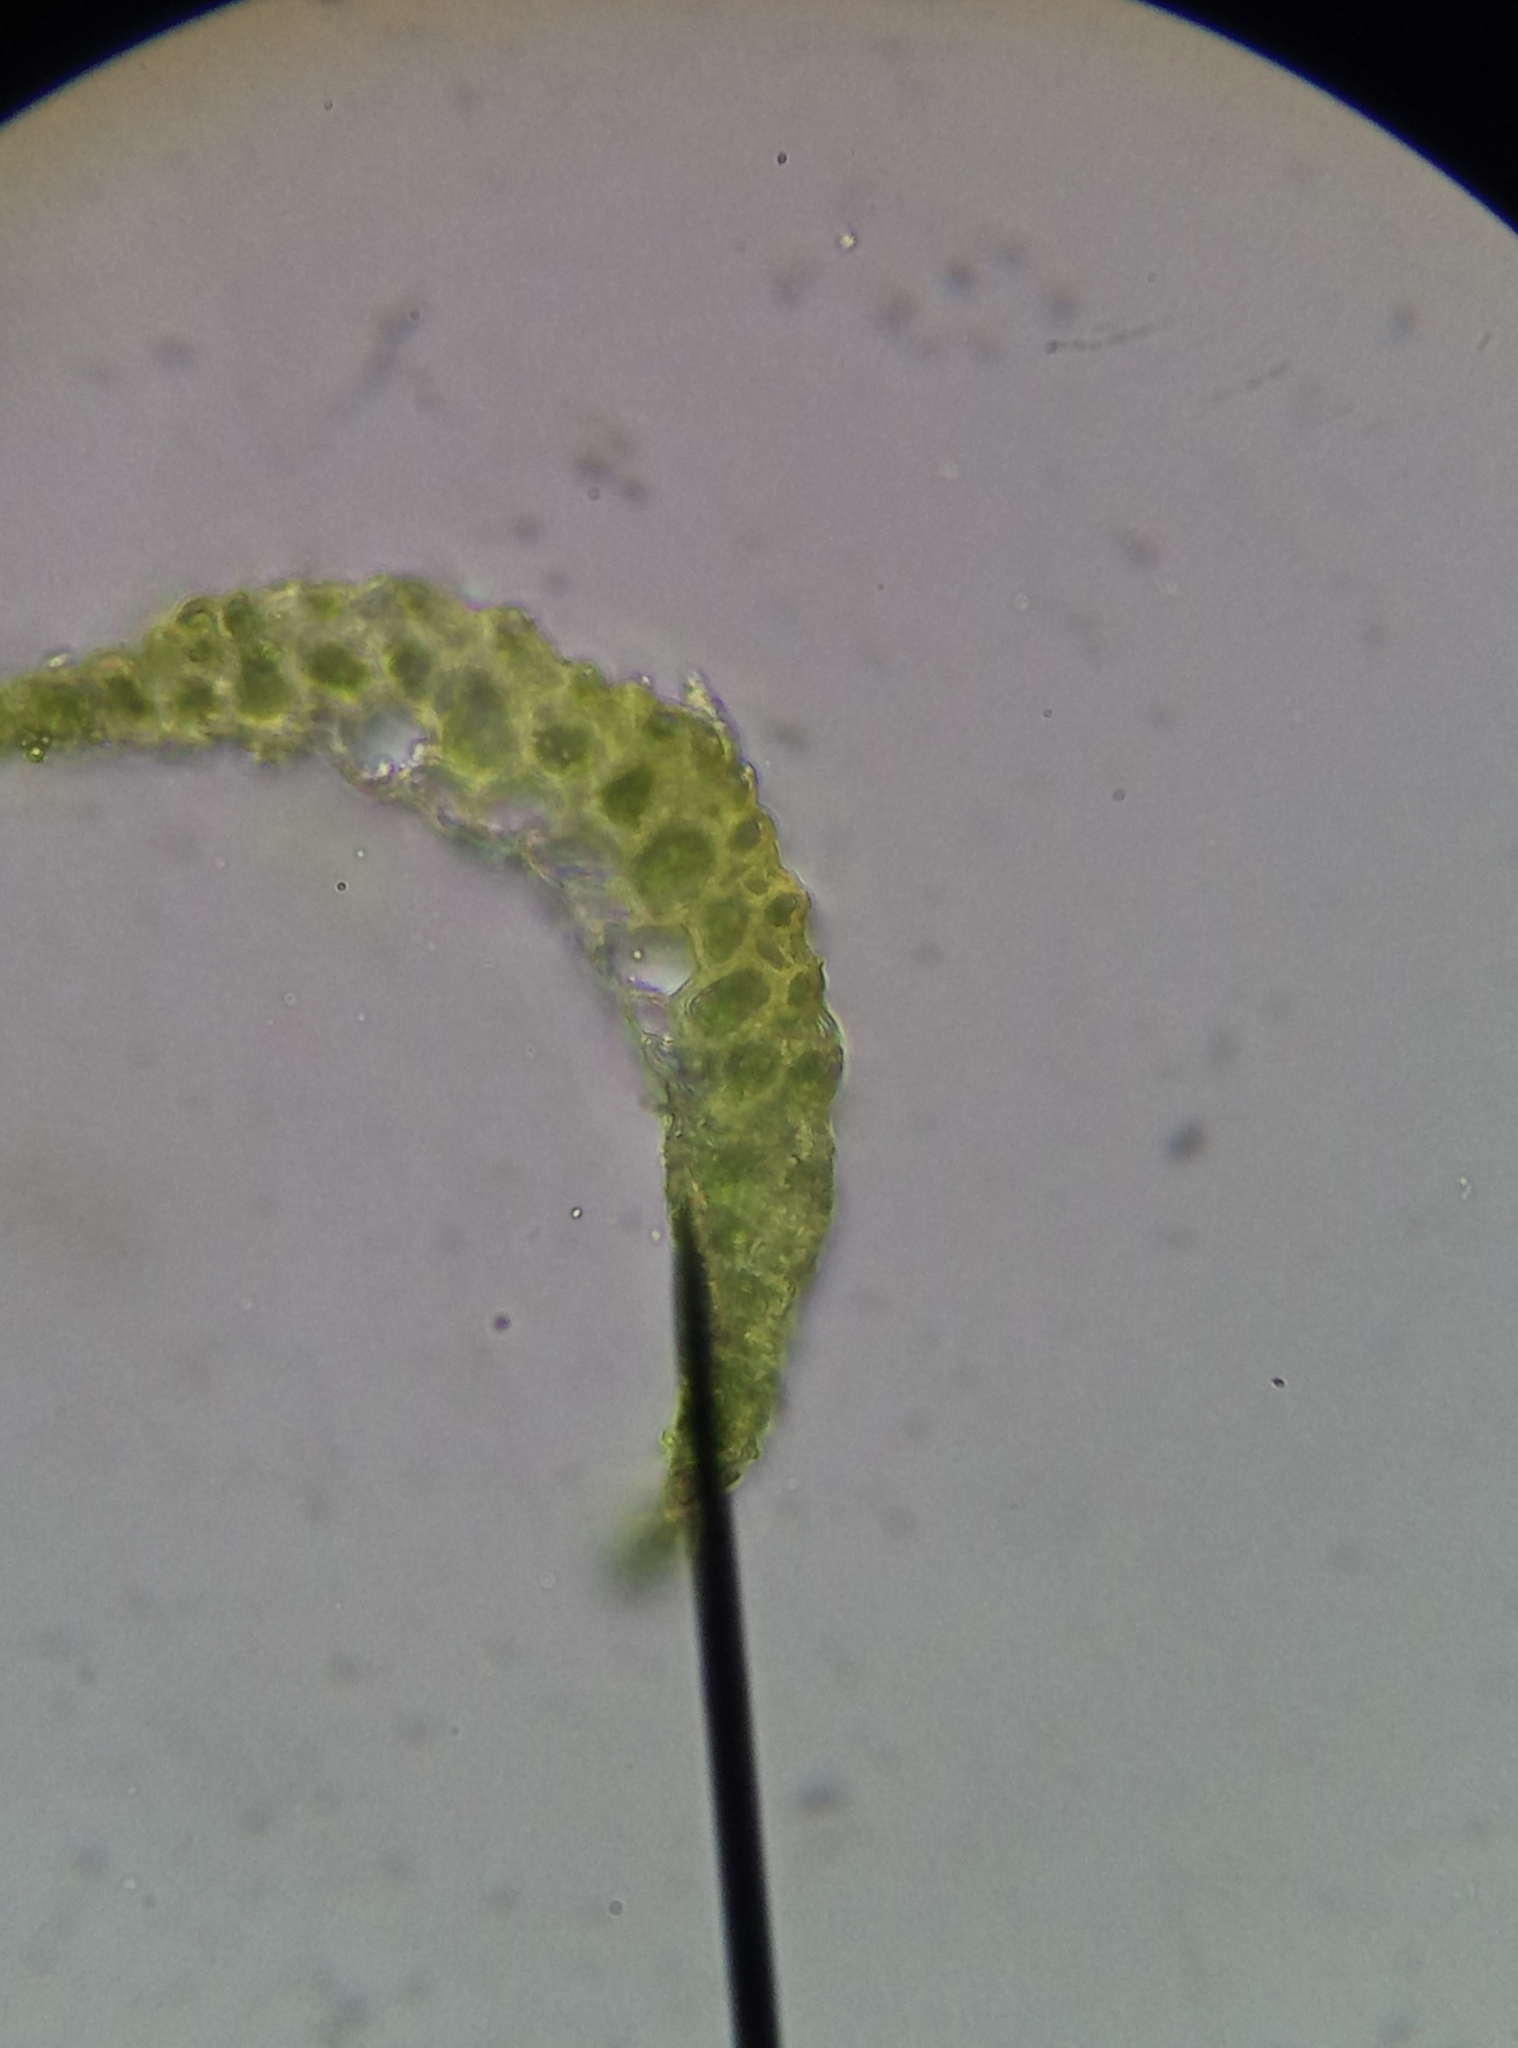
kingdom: Plantae
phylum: Bryophyta
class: Bryopsida
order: Dicranales
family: Leucobryaceae
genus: Campylopus
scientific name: Campylopus pyriformis
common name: Dwarf swan-neck moss
